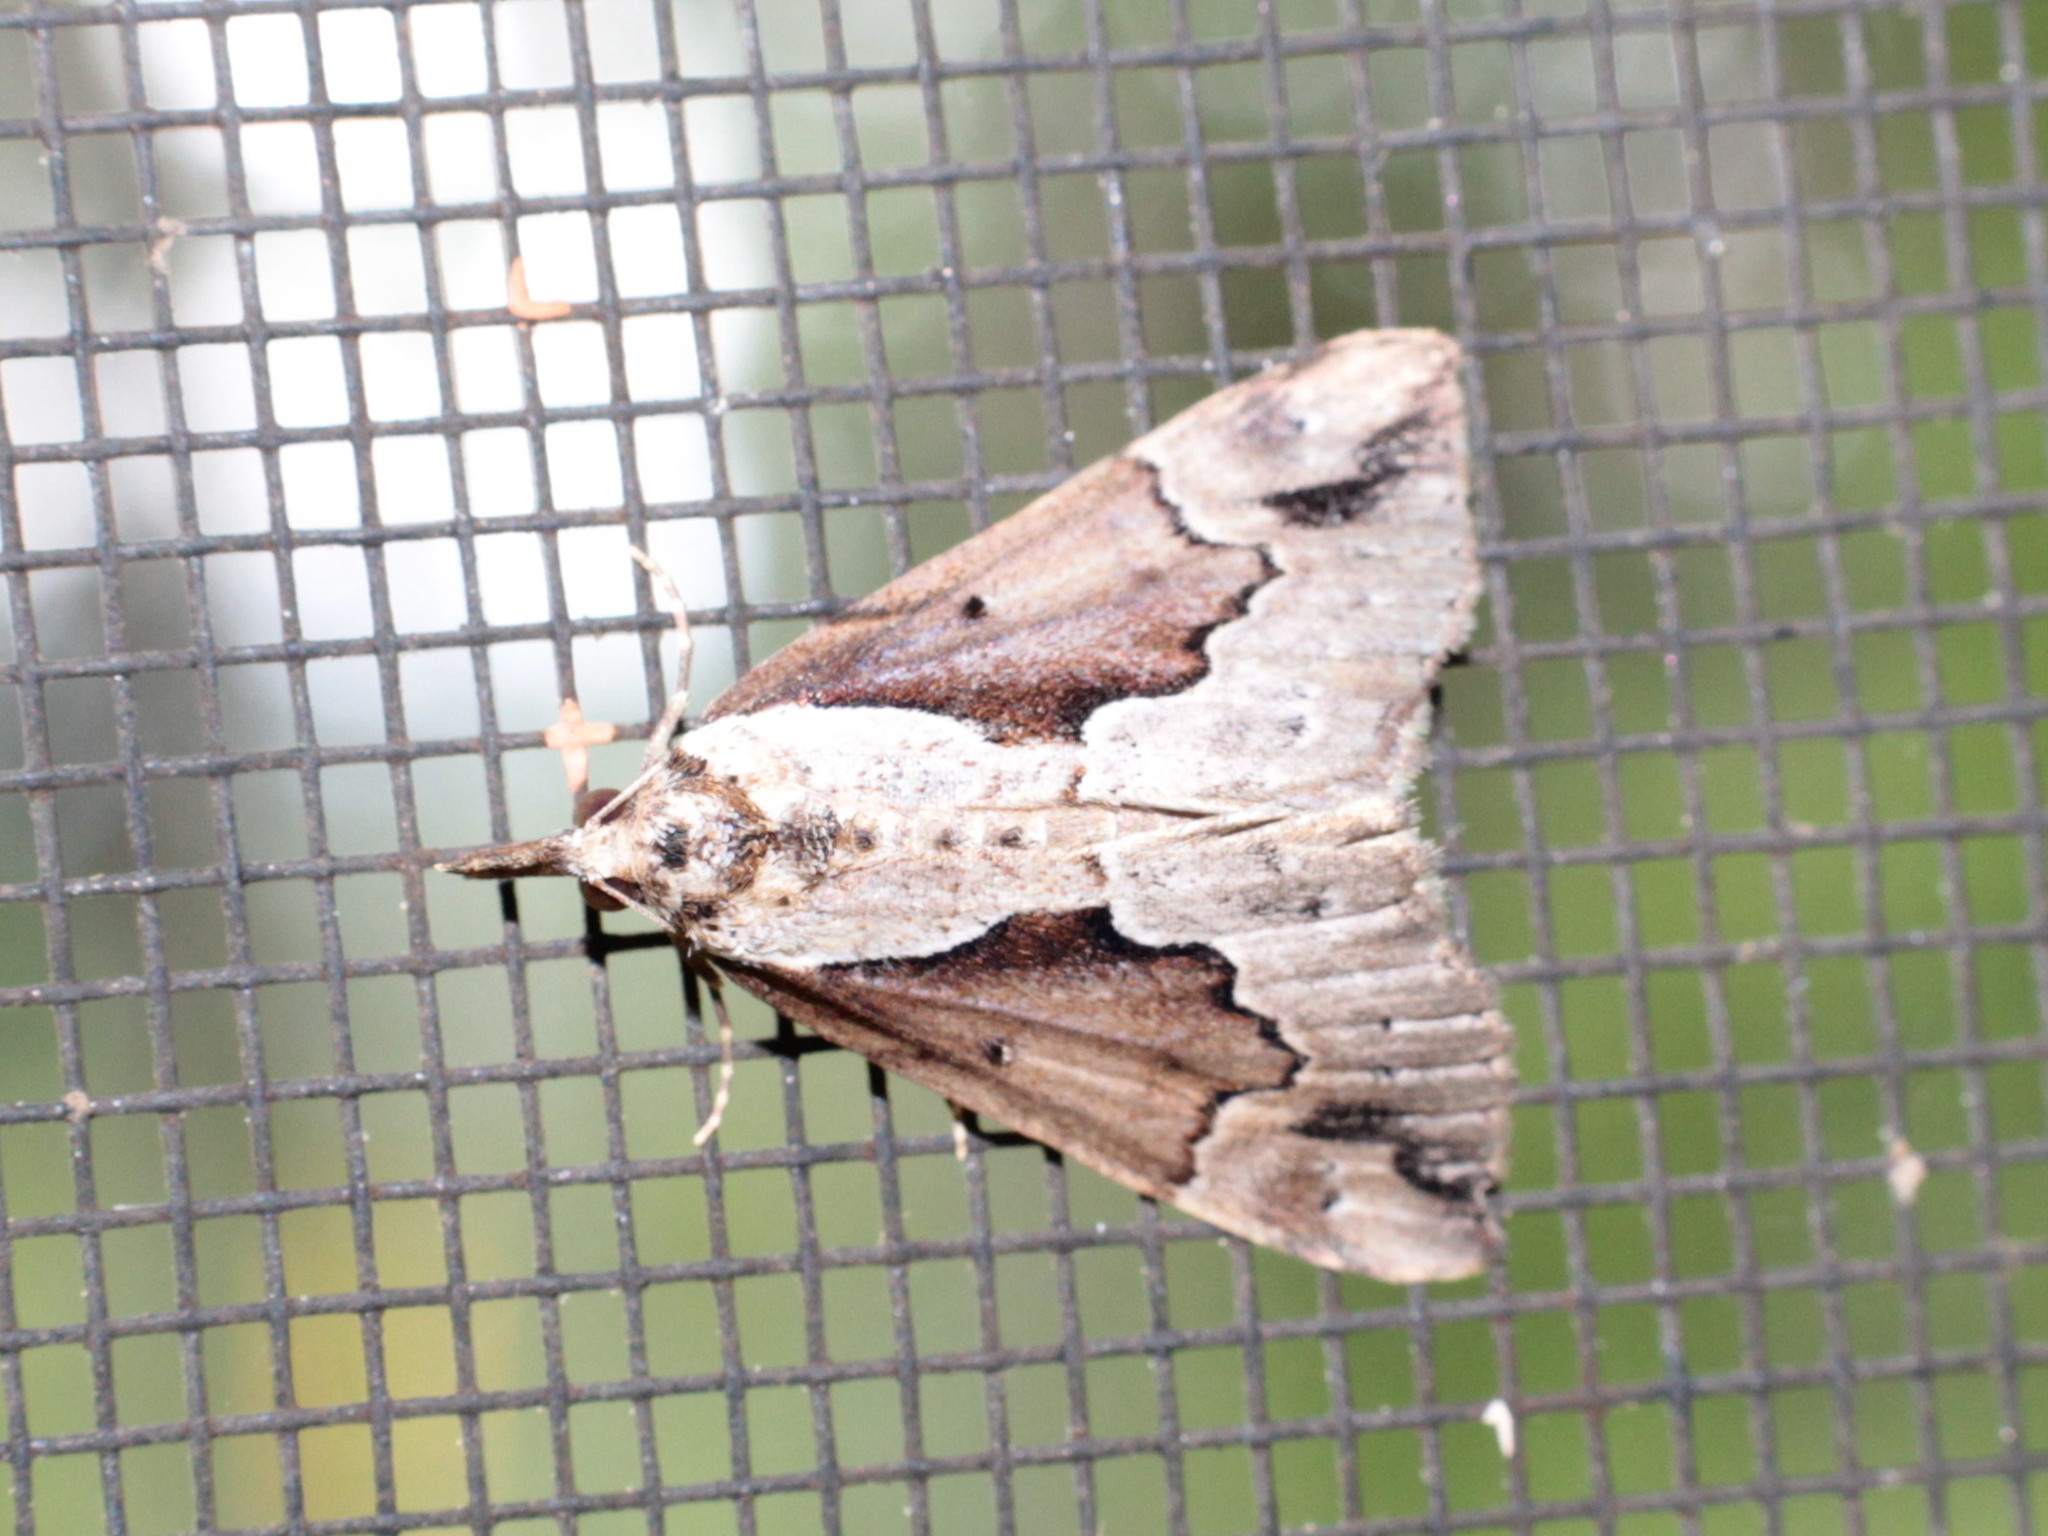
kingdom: Animalia
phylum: Arthropoda
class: Insecta
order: Lepidoptera
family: Erebidae
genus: Hypena
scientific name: Hypena baltimoralis
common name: Baltimore snout
